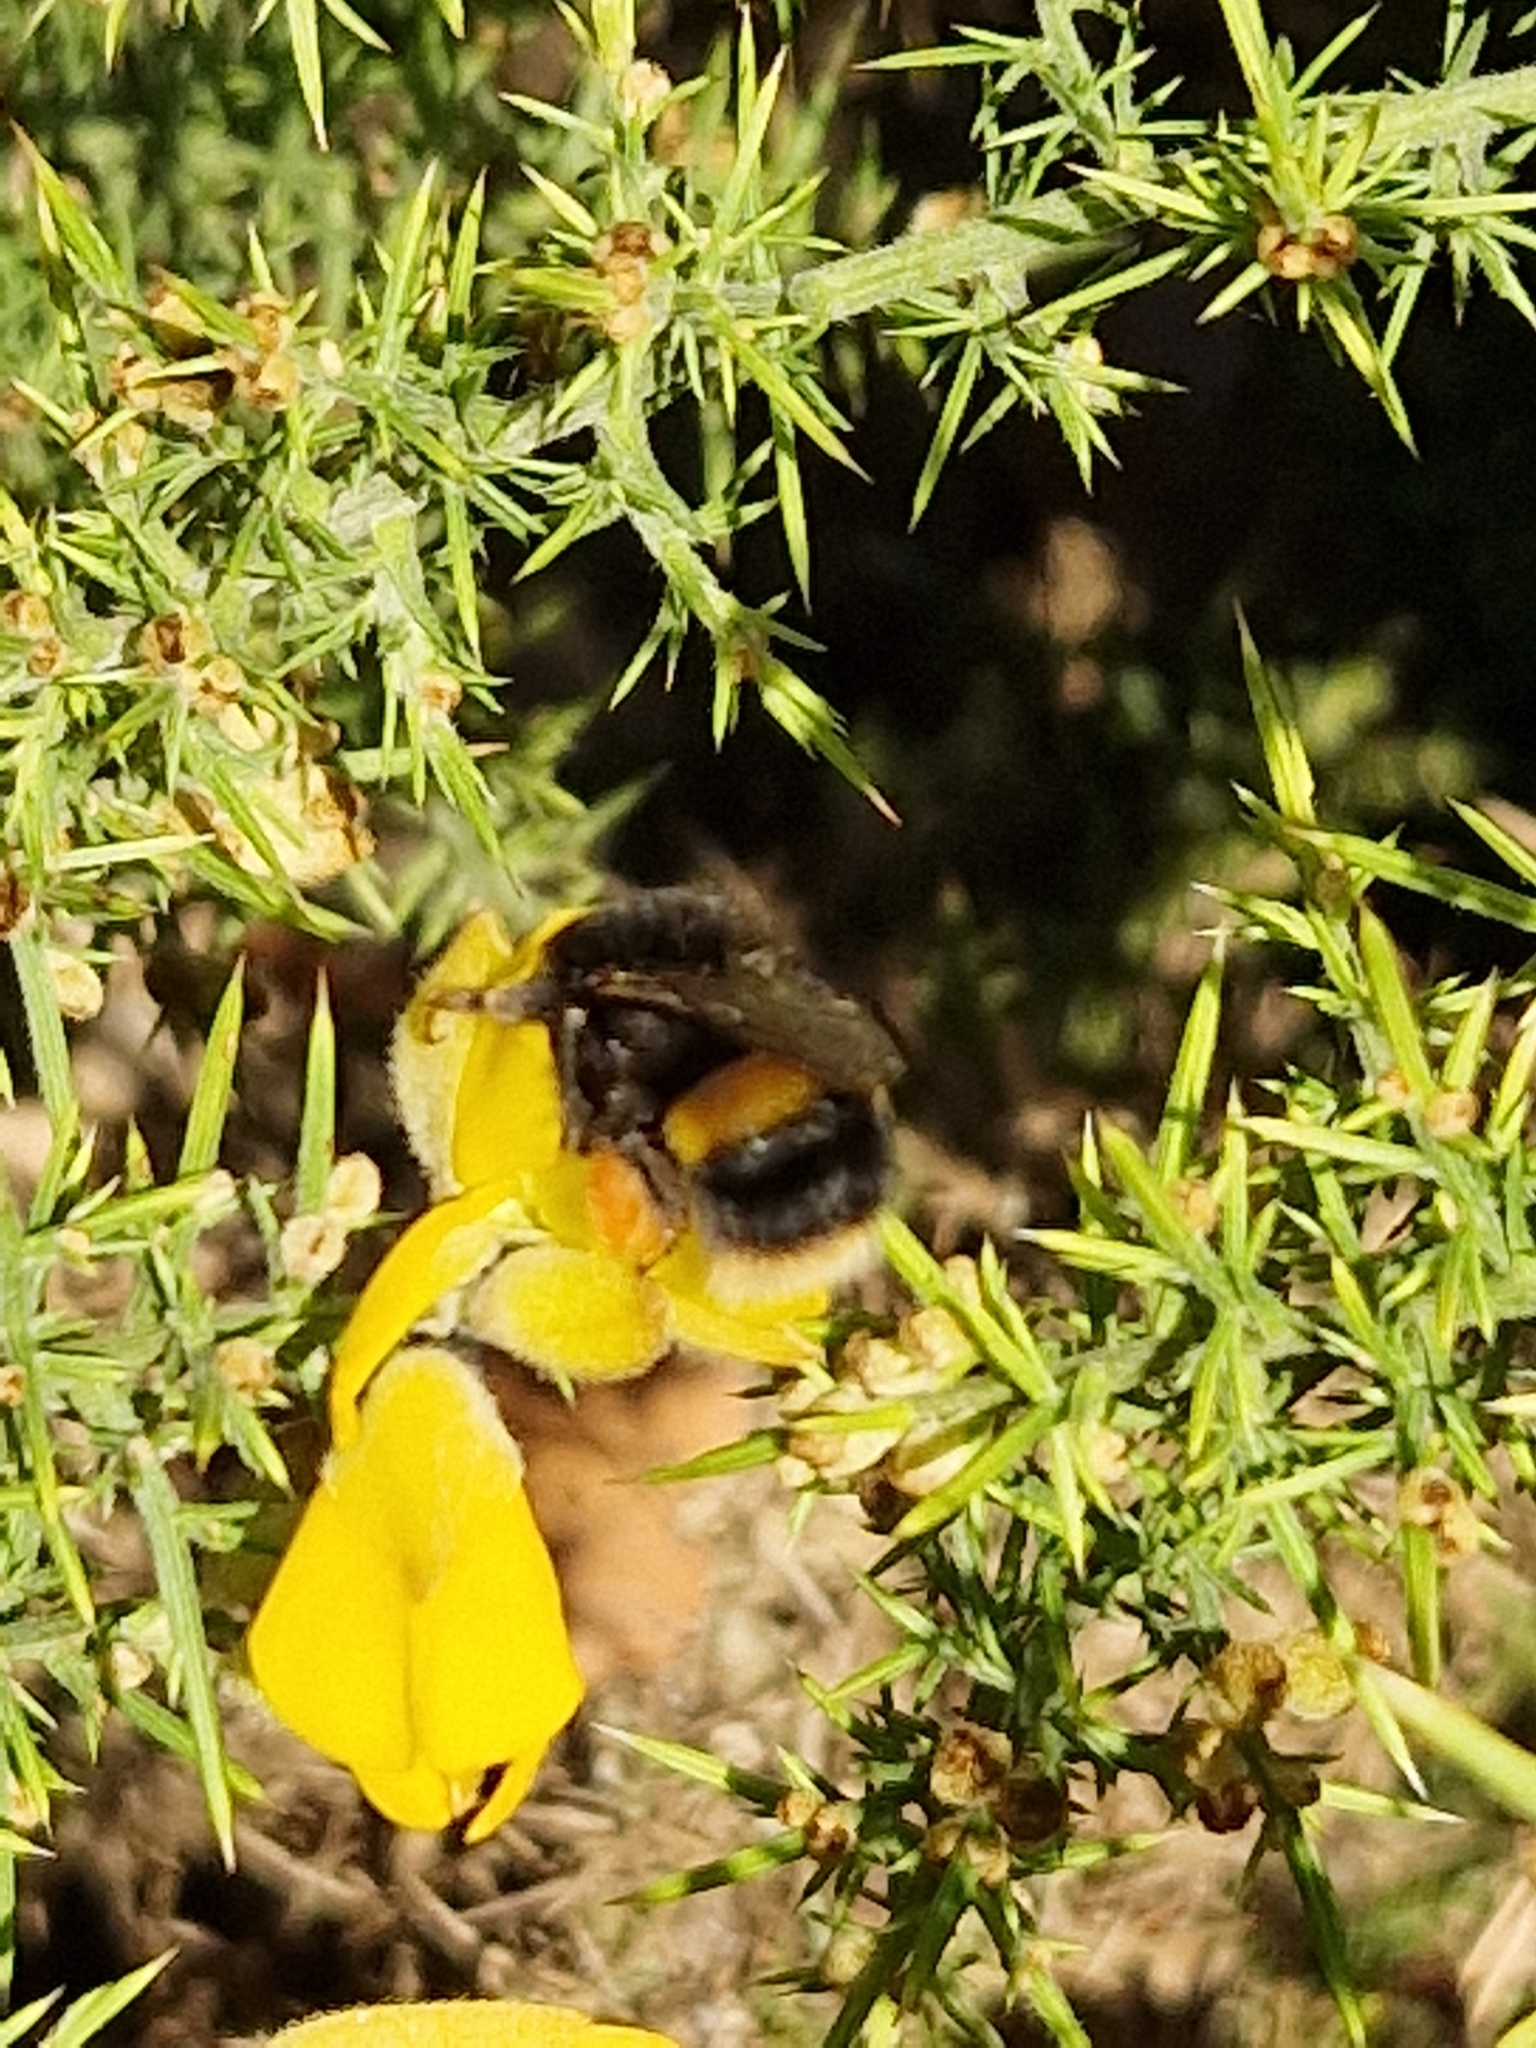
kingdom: Animalia
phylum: Arthropoda
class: Insecta
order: Hymenoptera
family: Apidae
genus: Bombus
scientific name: Bombus terrestris
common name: Buff-tailed bumblebee
